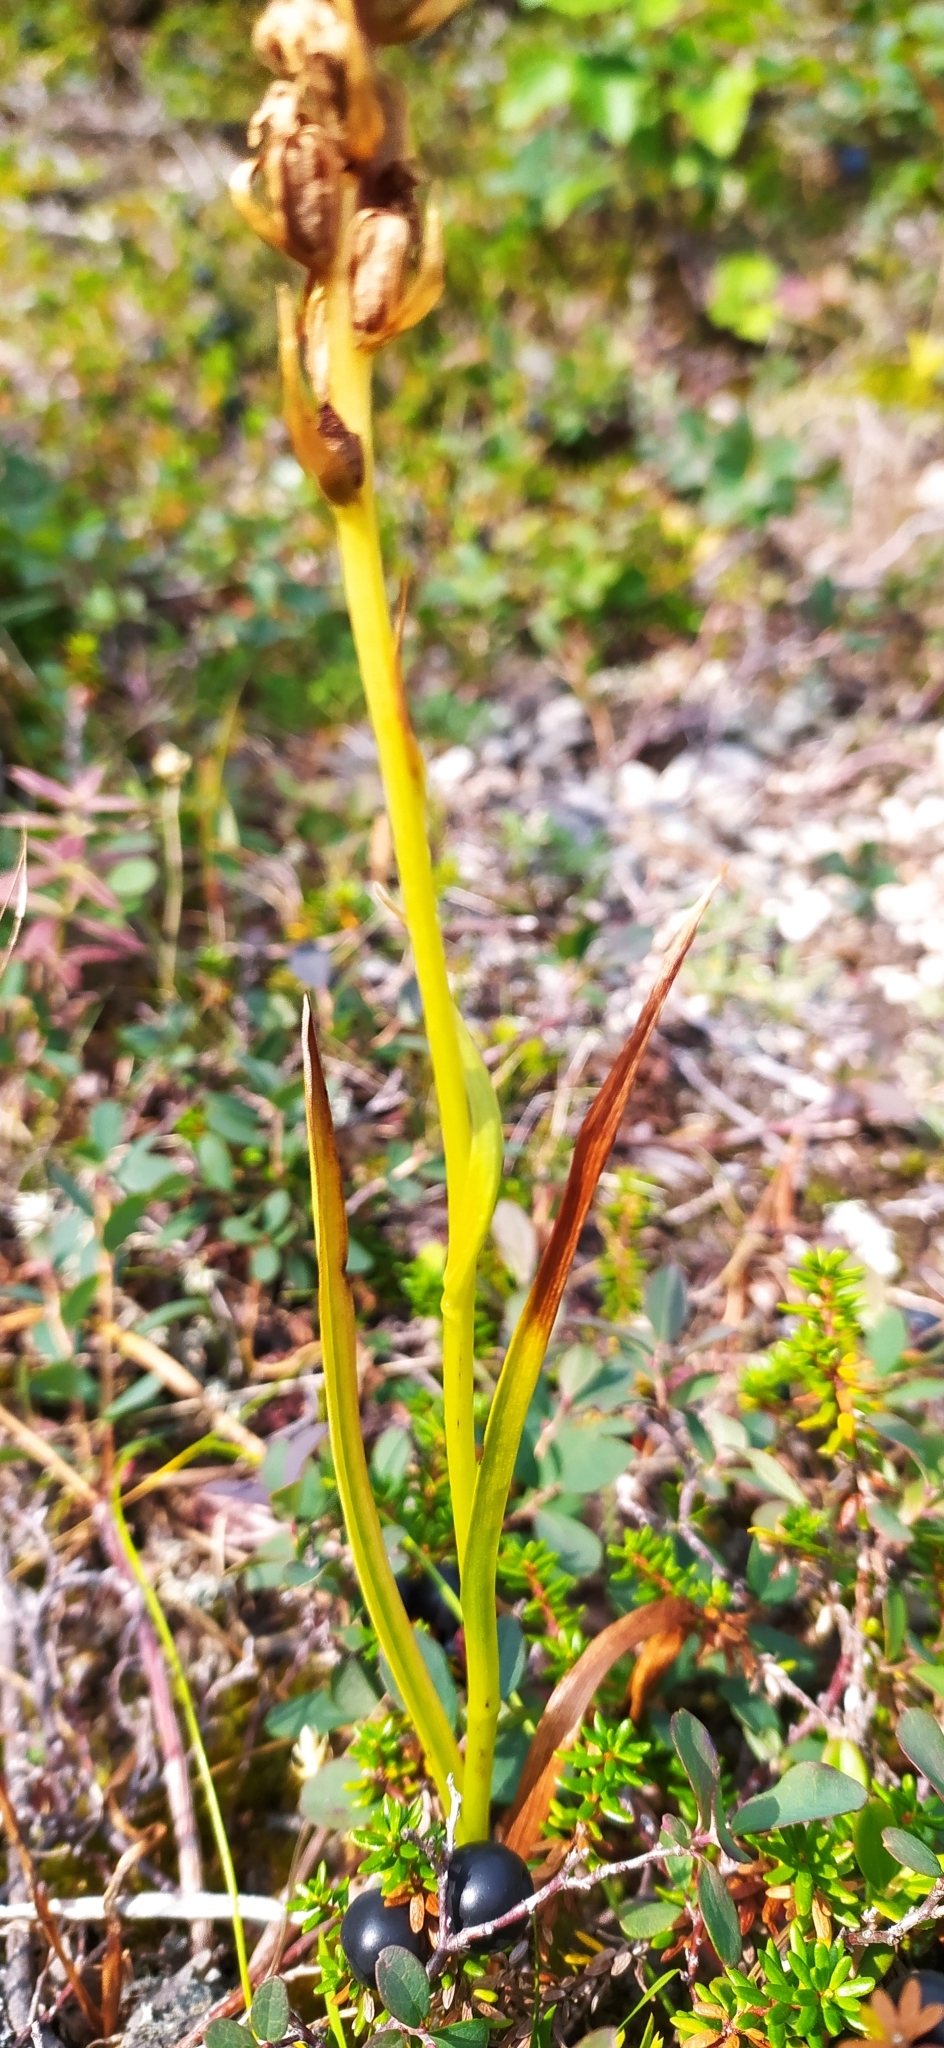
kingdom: Plantae
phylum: Tracheophyta
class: Liliopsida
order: Asparagales
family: Orchidaceae
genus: Gymnadenia
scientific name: Gymnadenia conopsea
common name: Fragrant orchid
